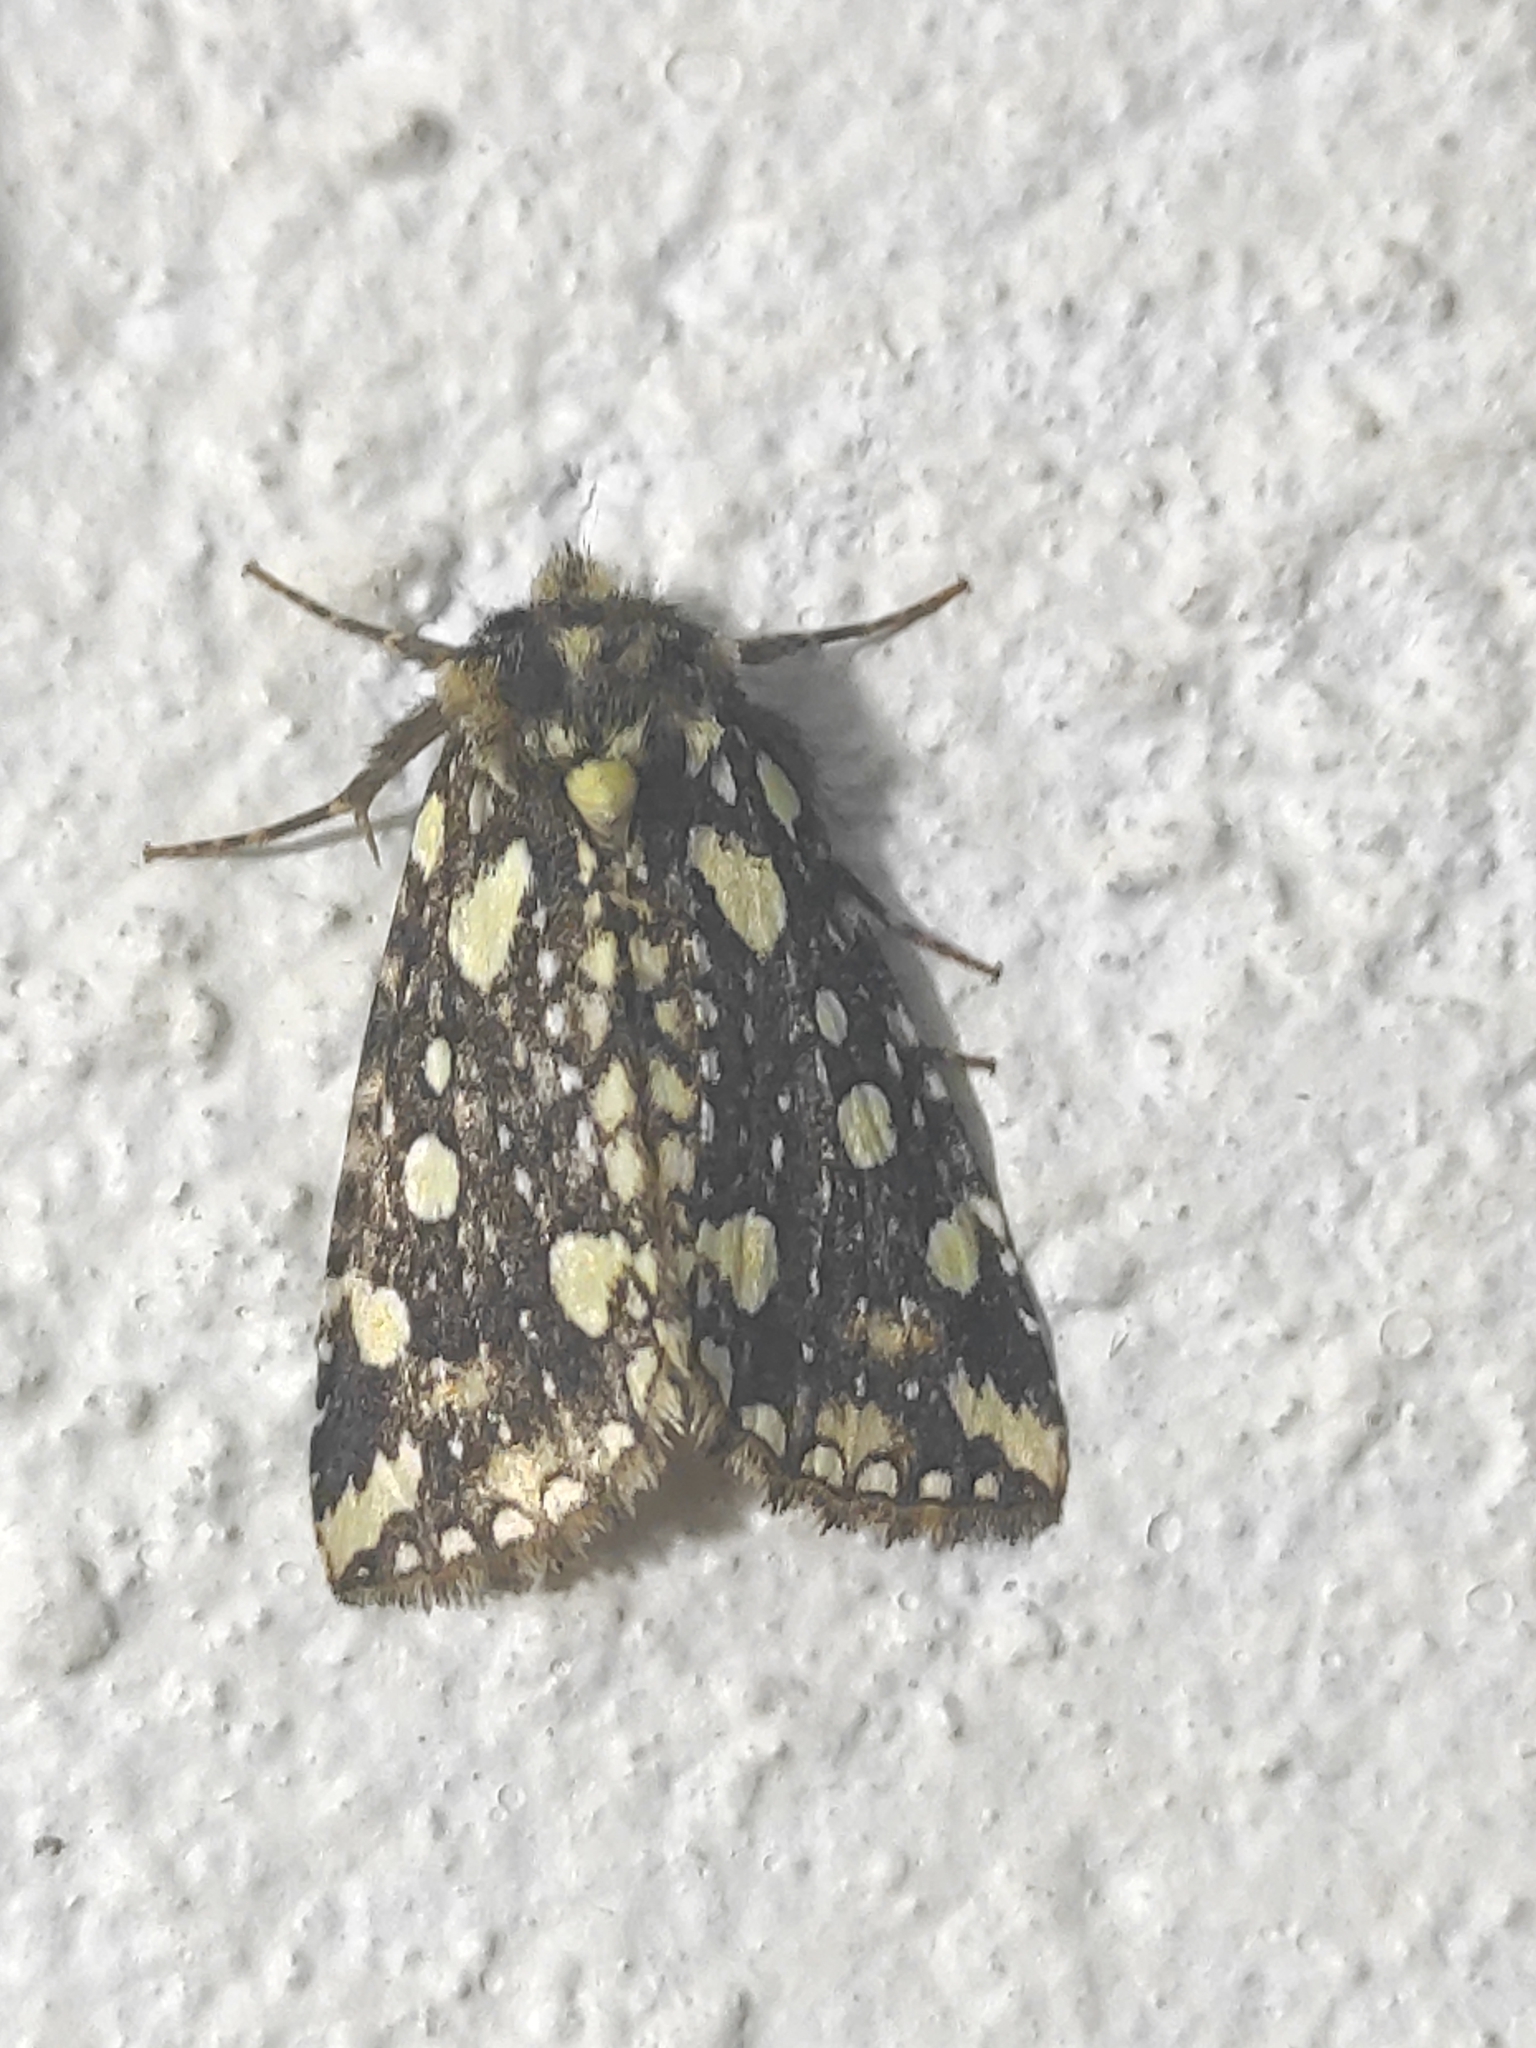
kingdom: Animalia
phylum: Arthropoda
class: Insecta
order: Lepidoptera
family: Drepanidae
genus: Gaurena
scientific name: Gaurena florescens
